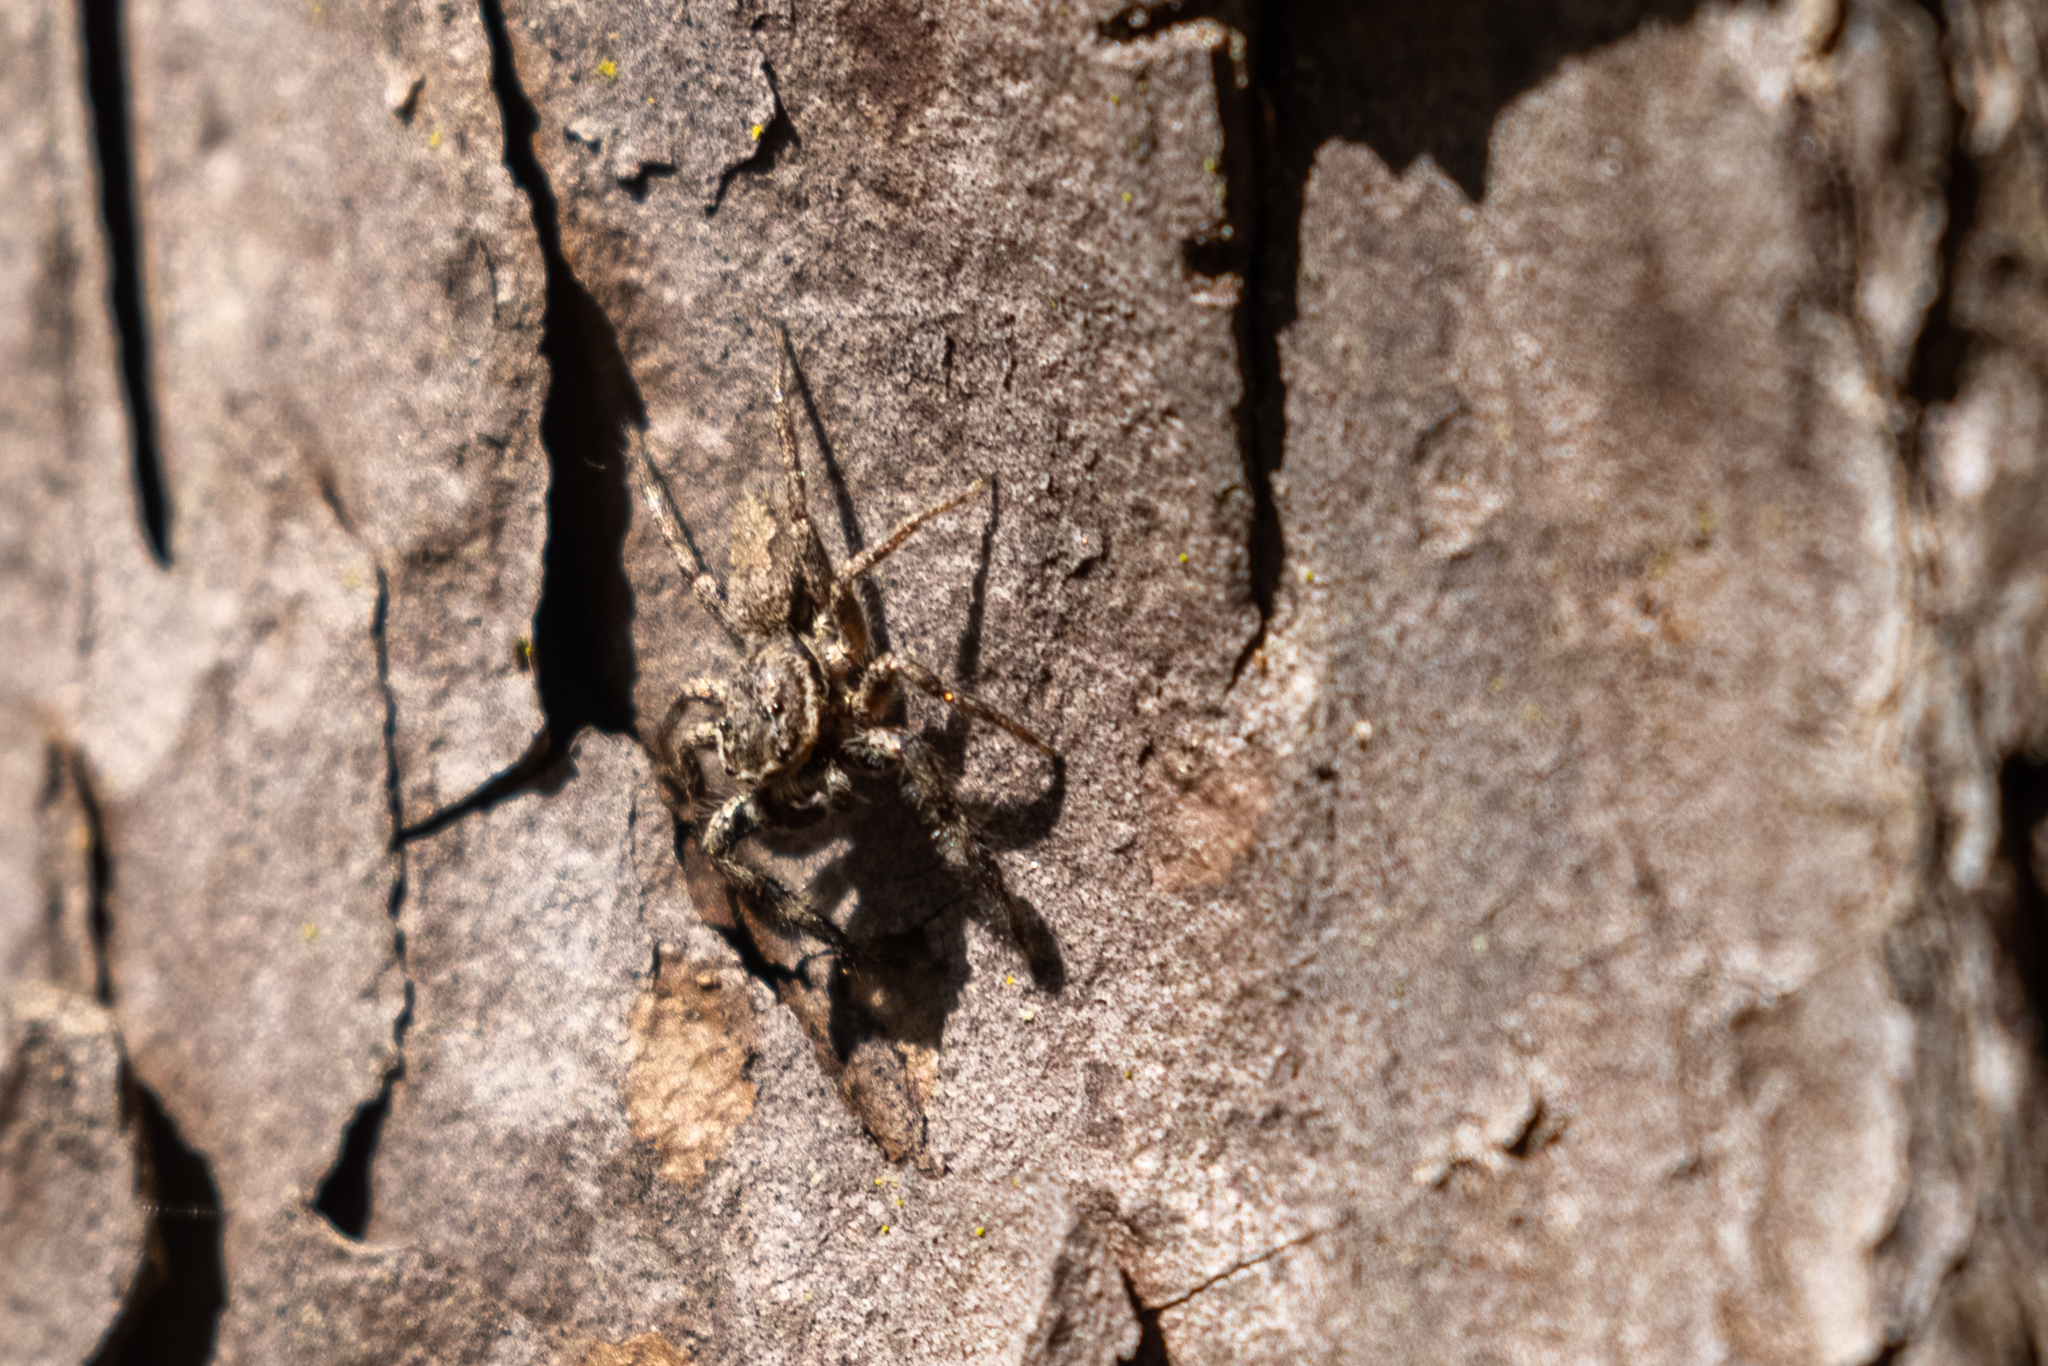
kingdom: Animalia
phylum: Arthropoda
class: Arachnida
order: Araneae
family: Salticidae
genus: Platycryptus
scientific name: Platycryptus undatus
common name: Tan jumping spider
